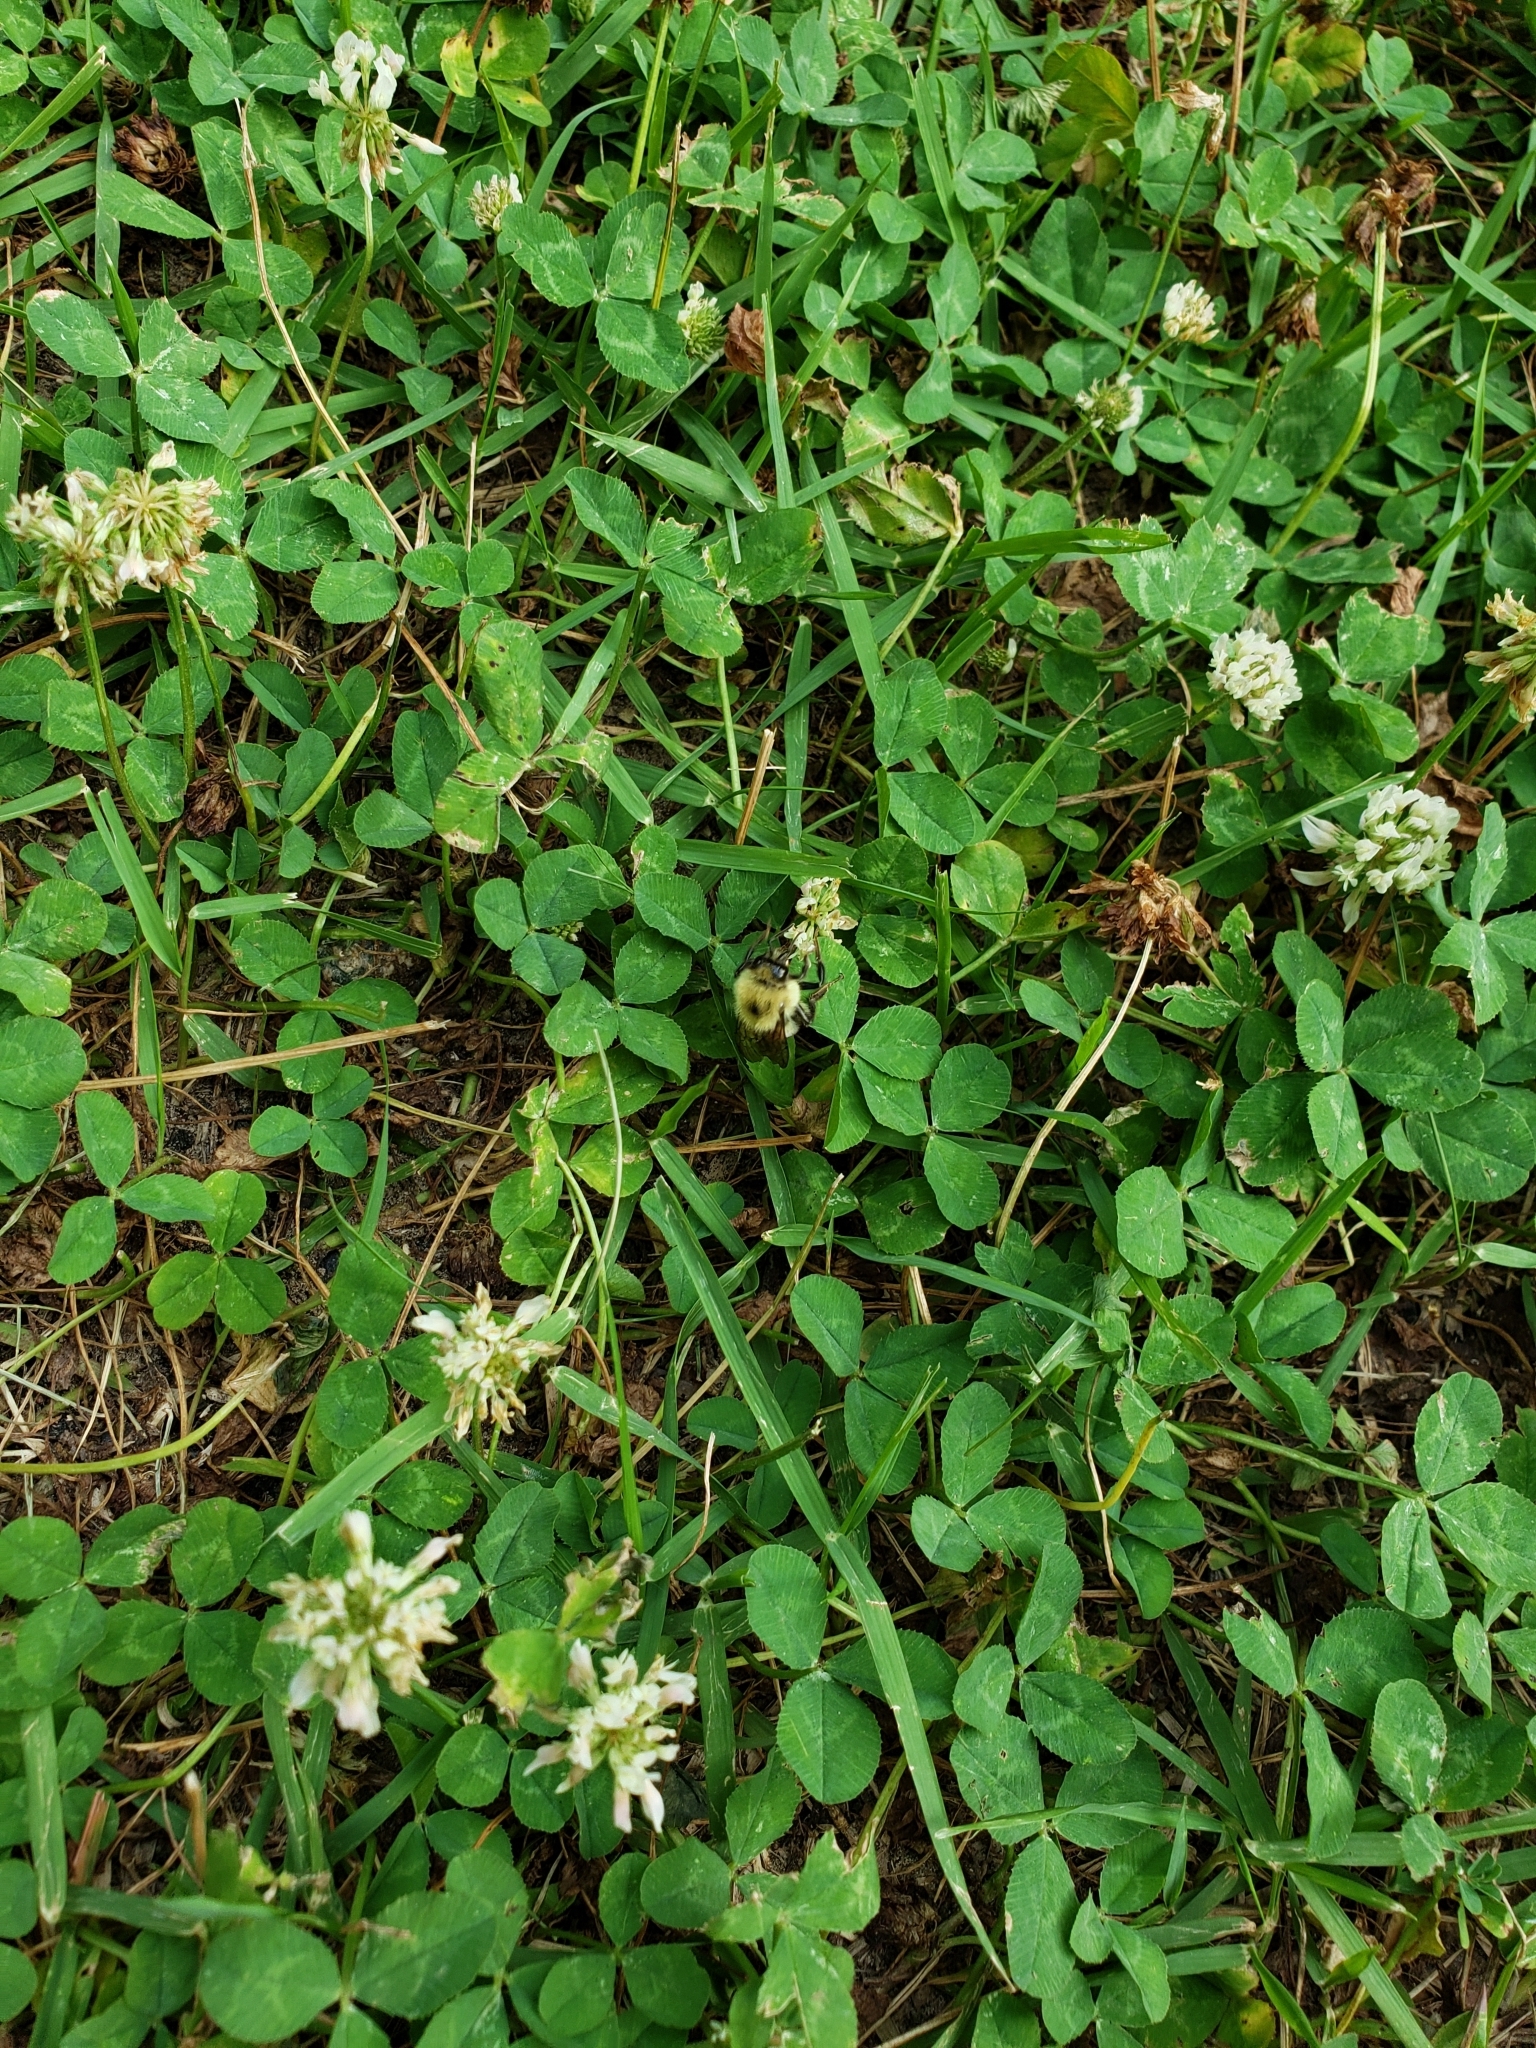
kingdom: Animalia
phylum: Arthropoda
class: Insecta
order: Hymenoptera
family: Apidae
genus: Bombus
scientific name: Bombus bimaculatus
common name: Two-spotted bumble bee
